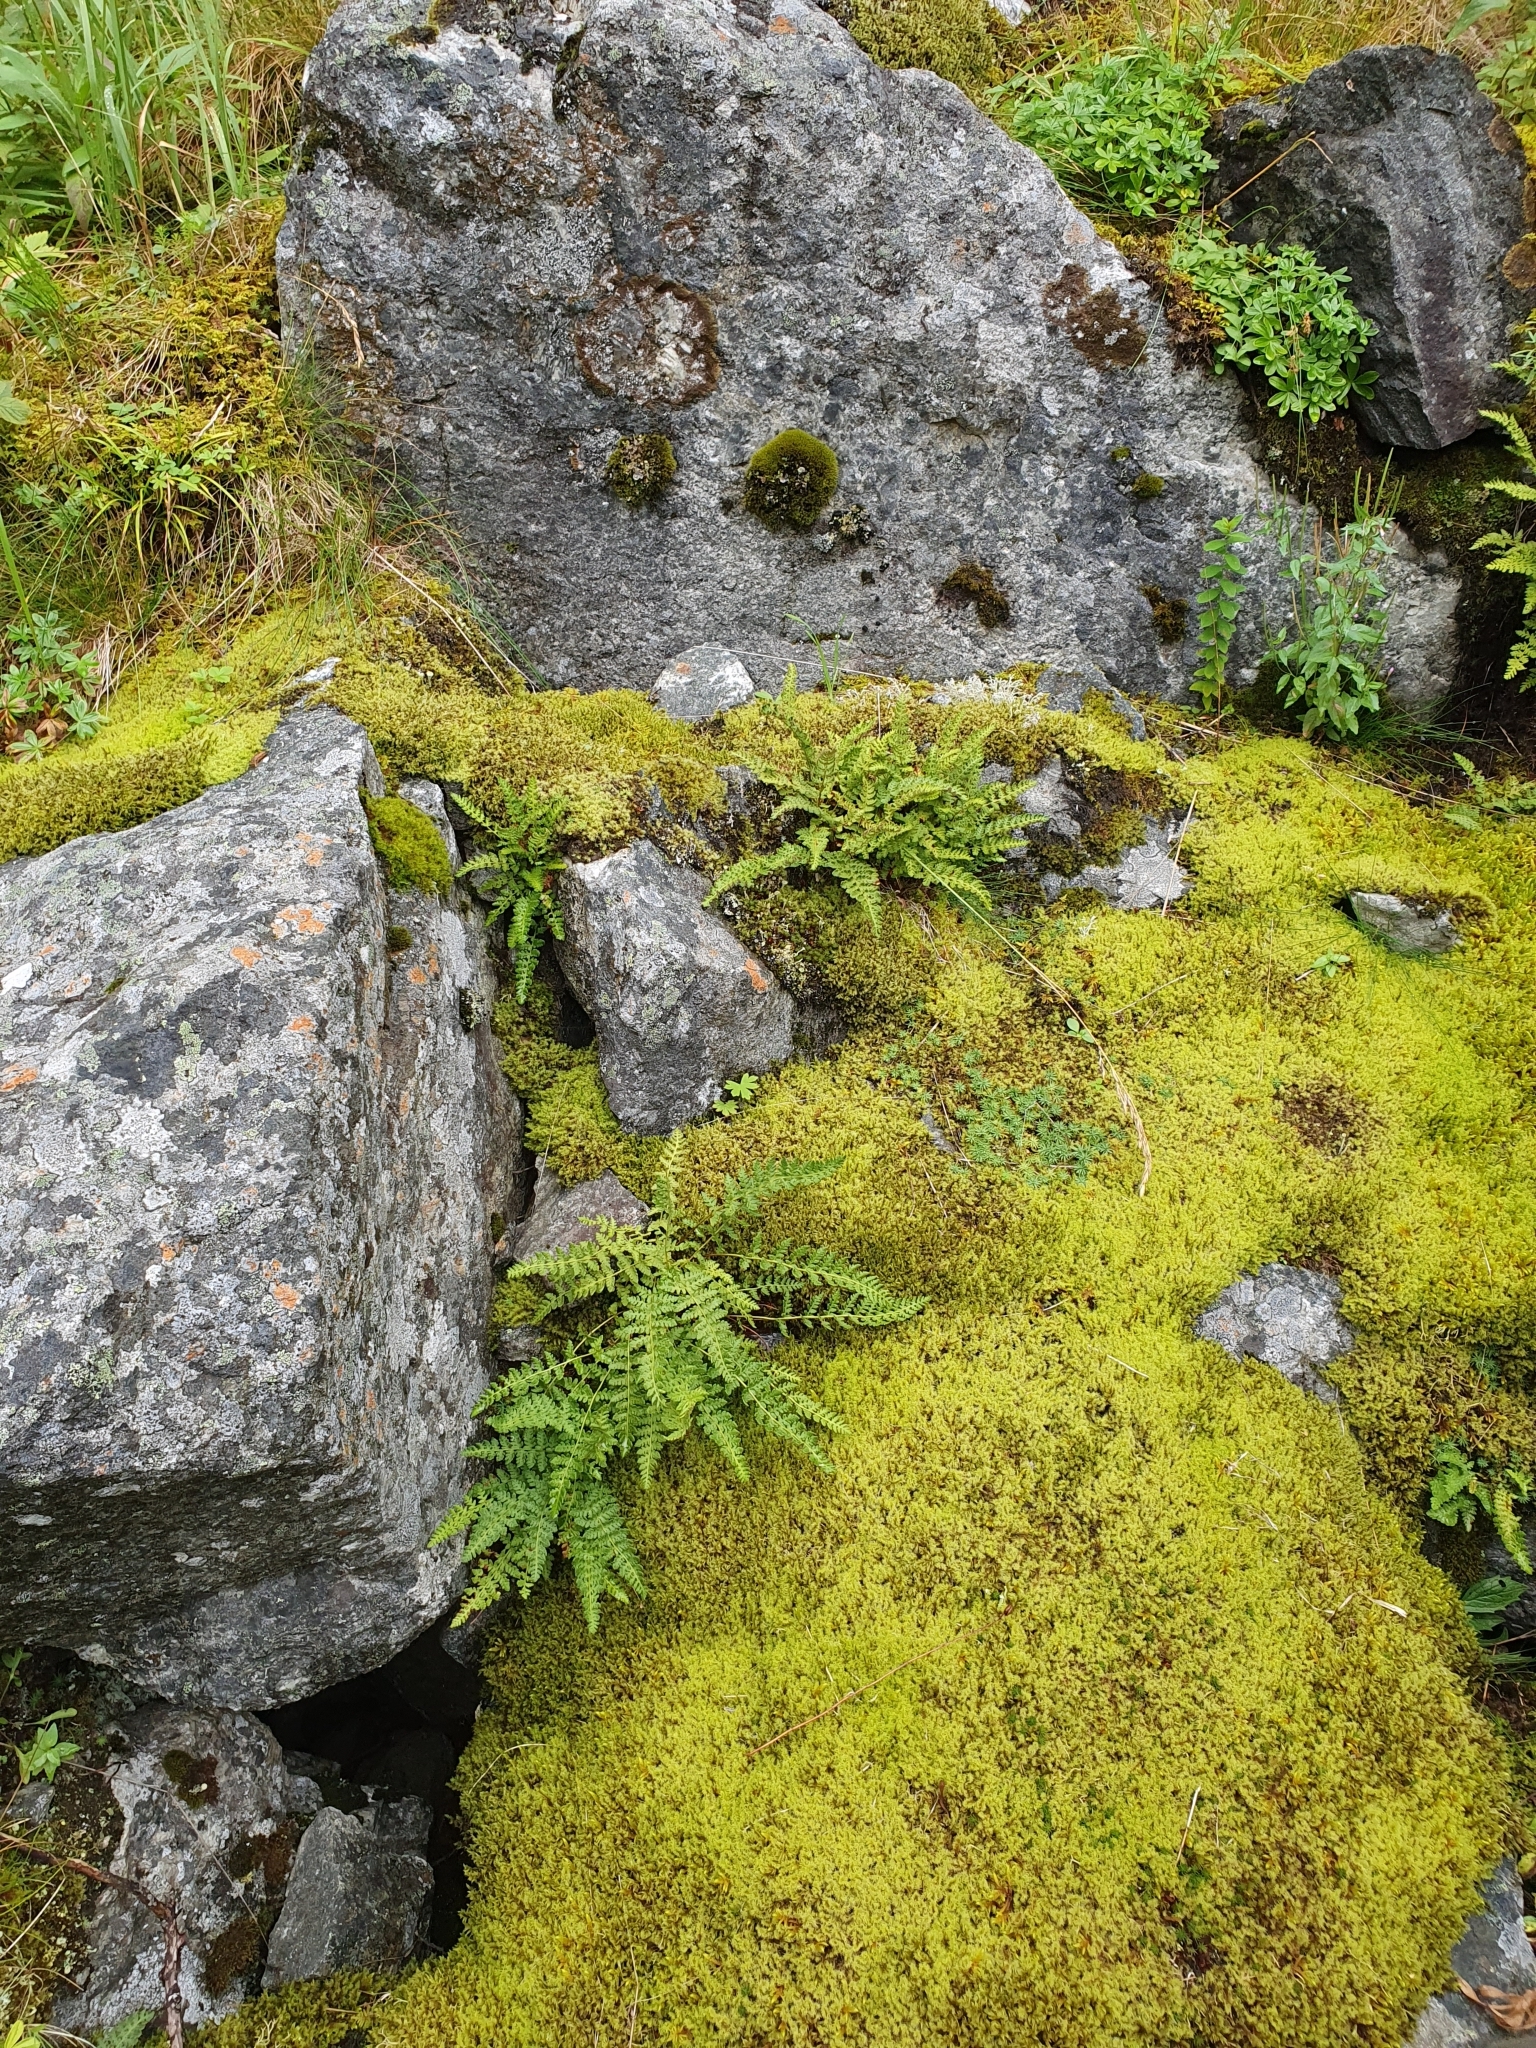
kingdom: Plantae
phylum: Tracheophyta
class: Polypodiopsida
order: Polypodiales
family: Woodsiaceae
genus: Woodsia
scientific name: Woodsia alpina
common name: Alpine woodsia
